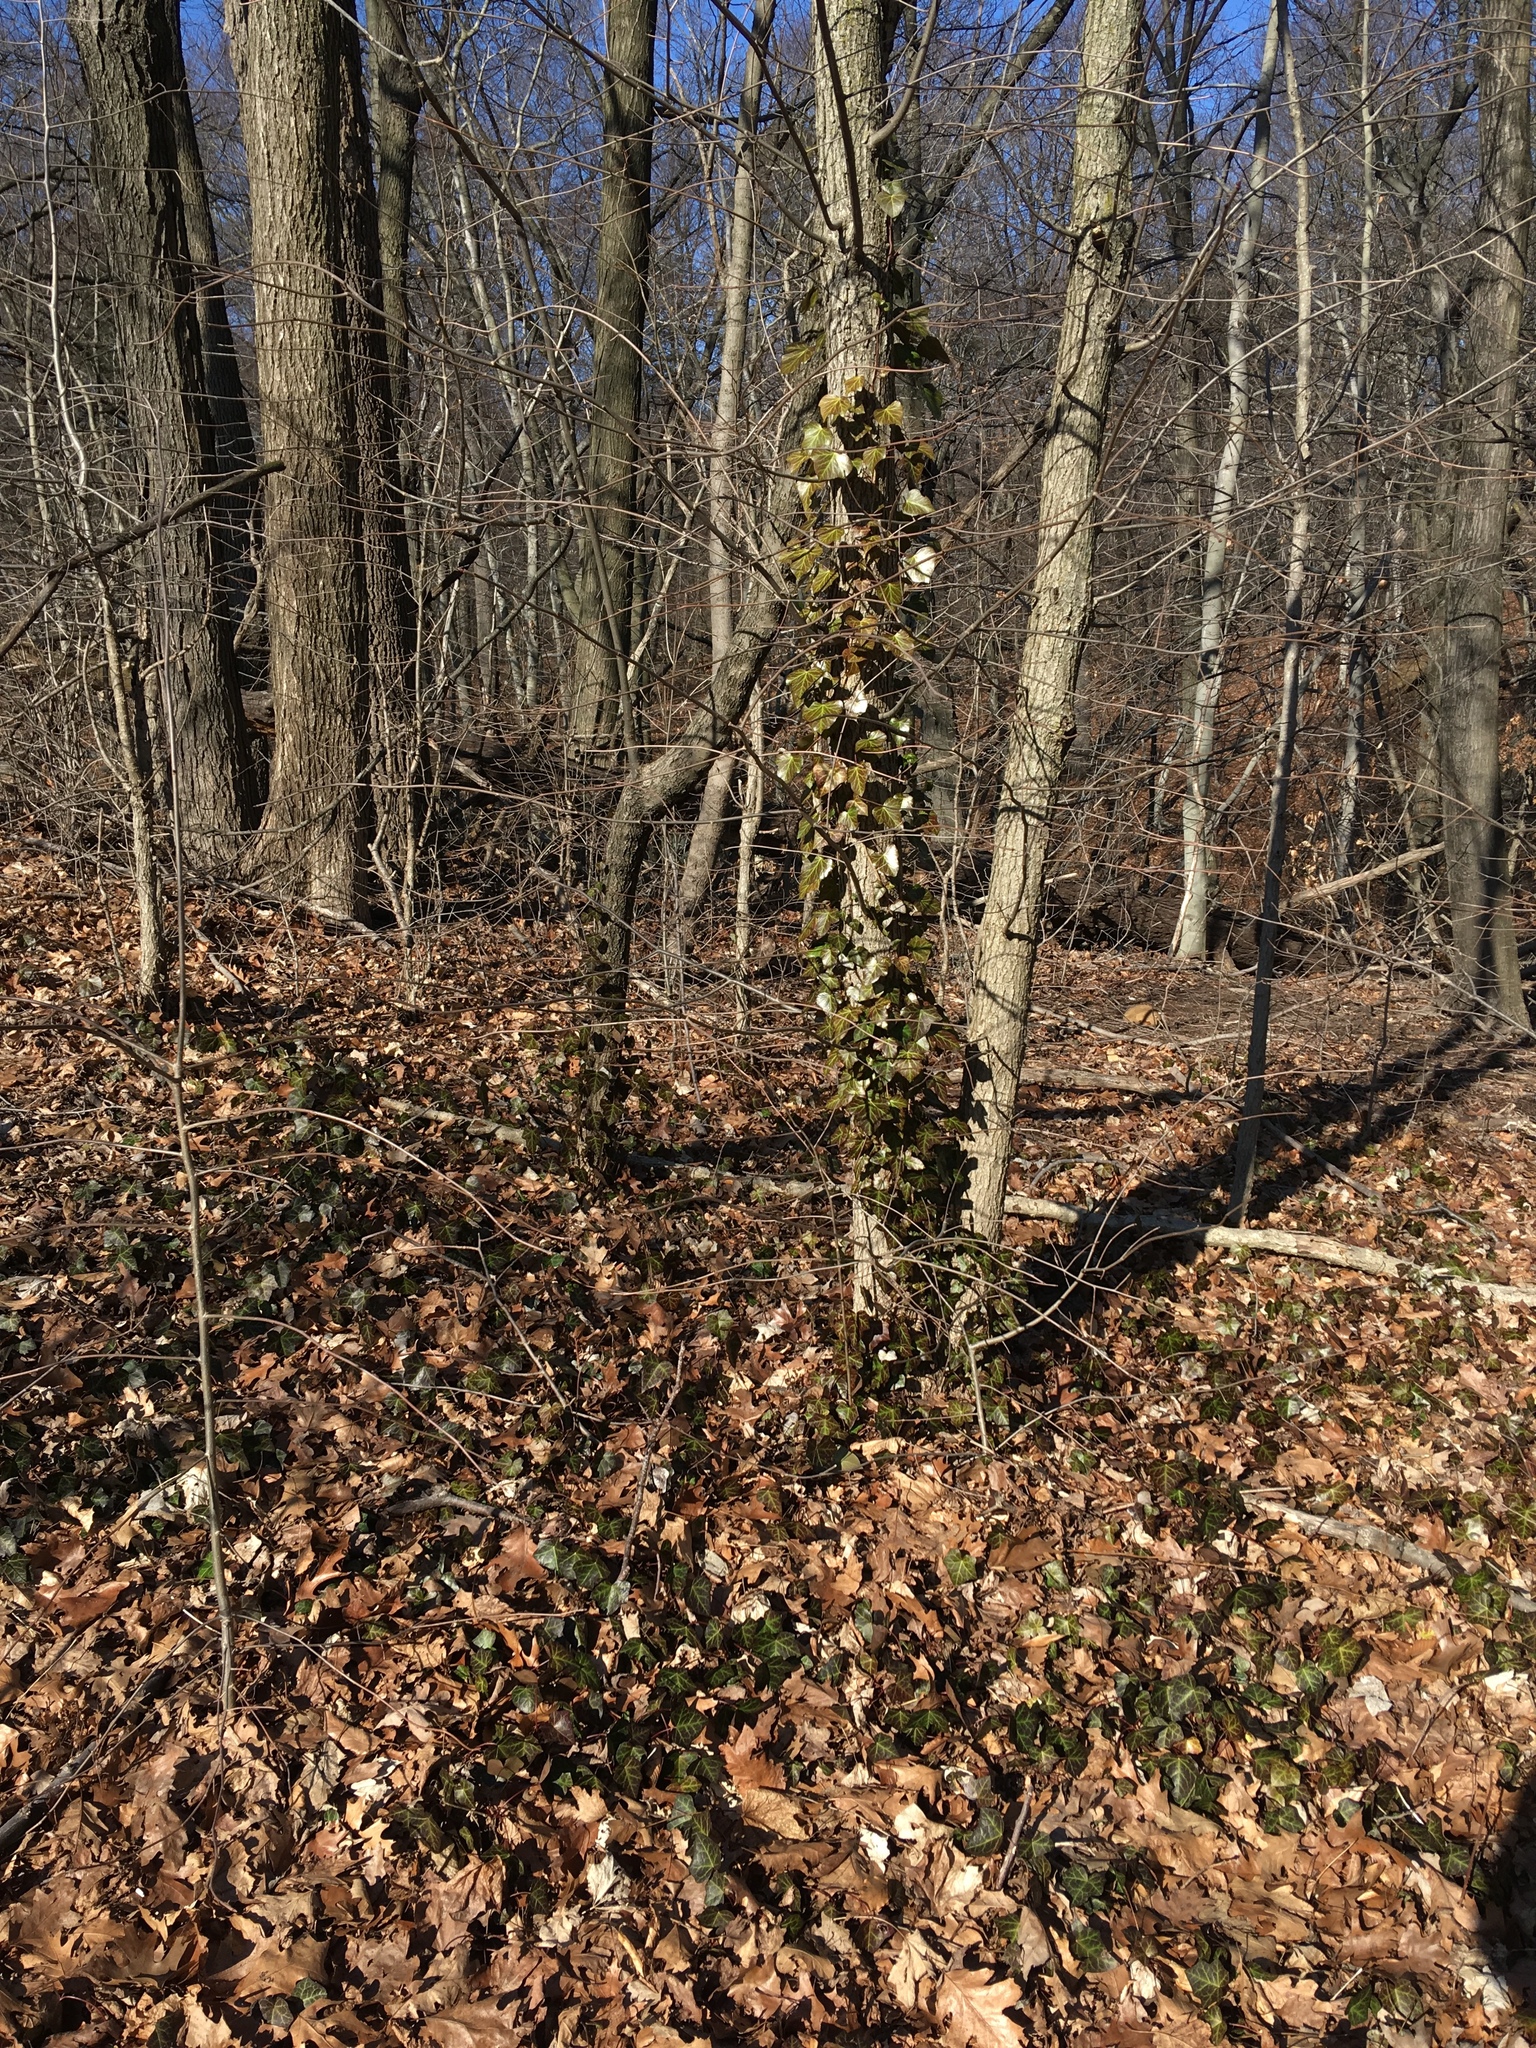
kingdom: Plantae
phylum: Tracheophyta
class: Magnoliopsida
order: Apiales
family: Araliaceae
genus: Hedera
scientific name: Hedera helix
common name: Ivy
